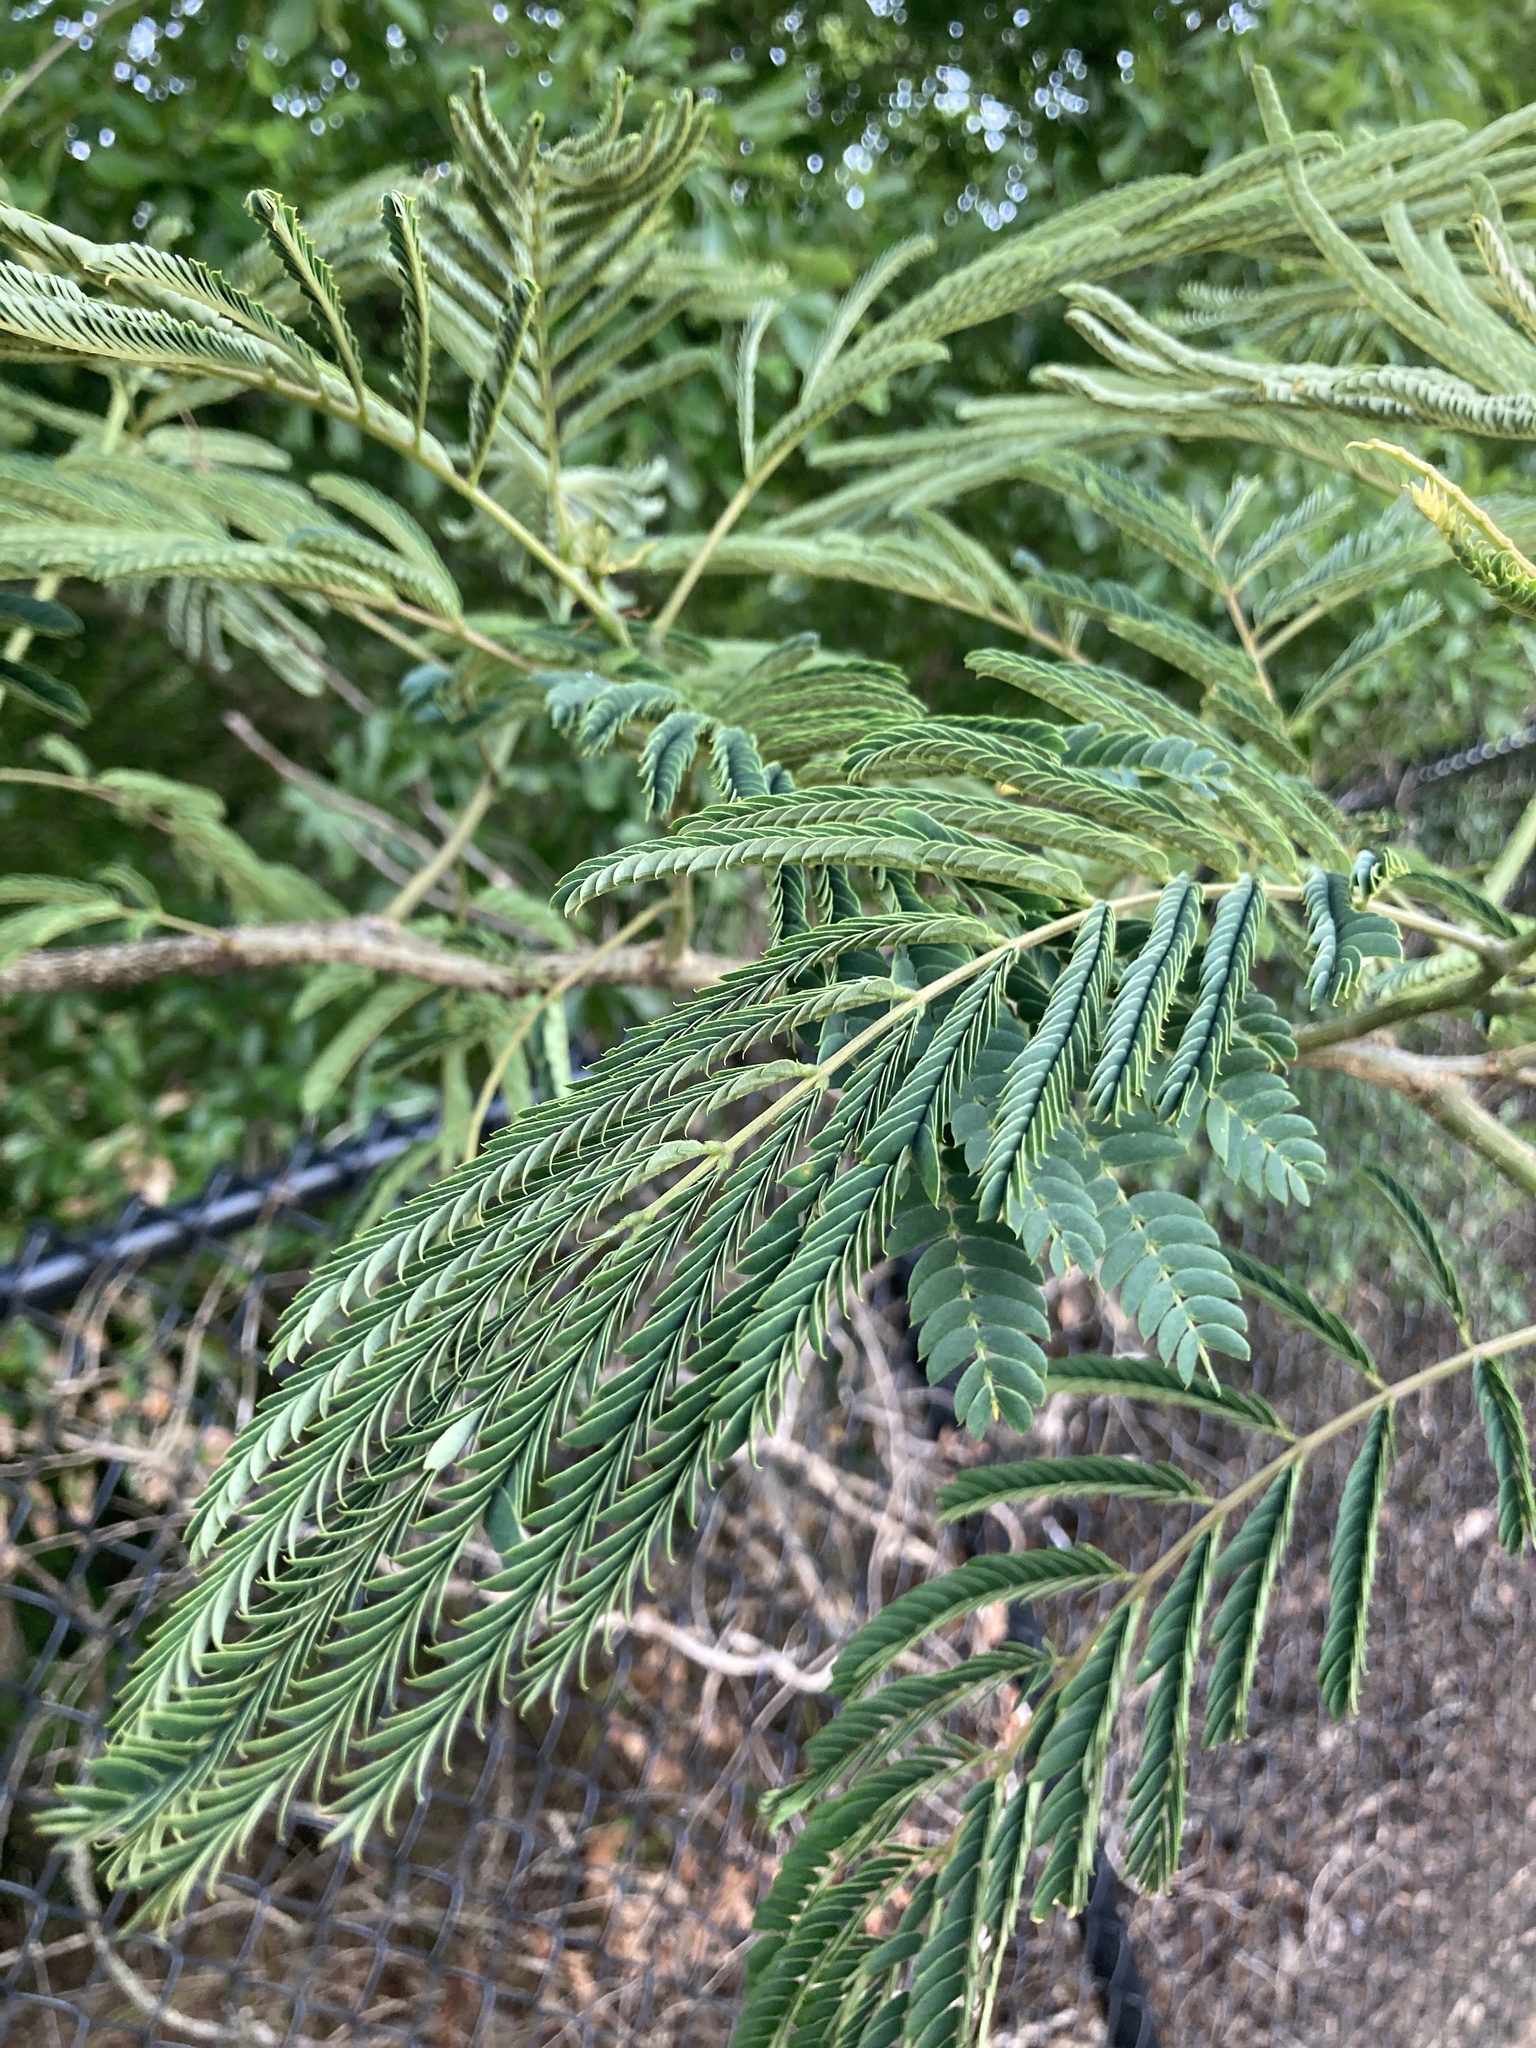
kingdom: Plantae
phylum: Tracheophyta
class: Magnoliopsida
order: Fabales
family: Fabaceae
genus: Albizia
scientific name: Albizia julibrissin
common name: Silktree
